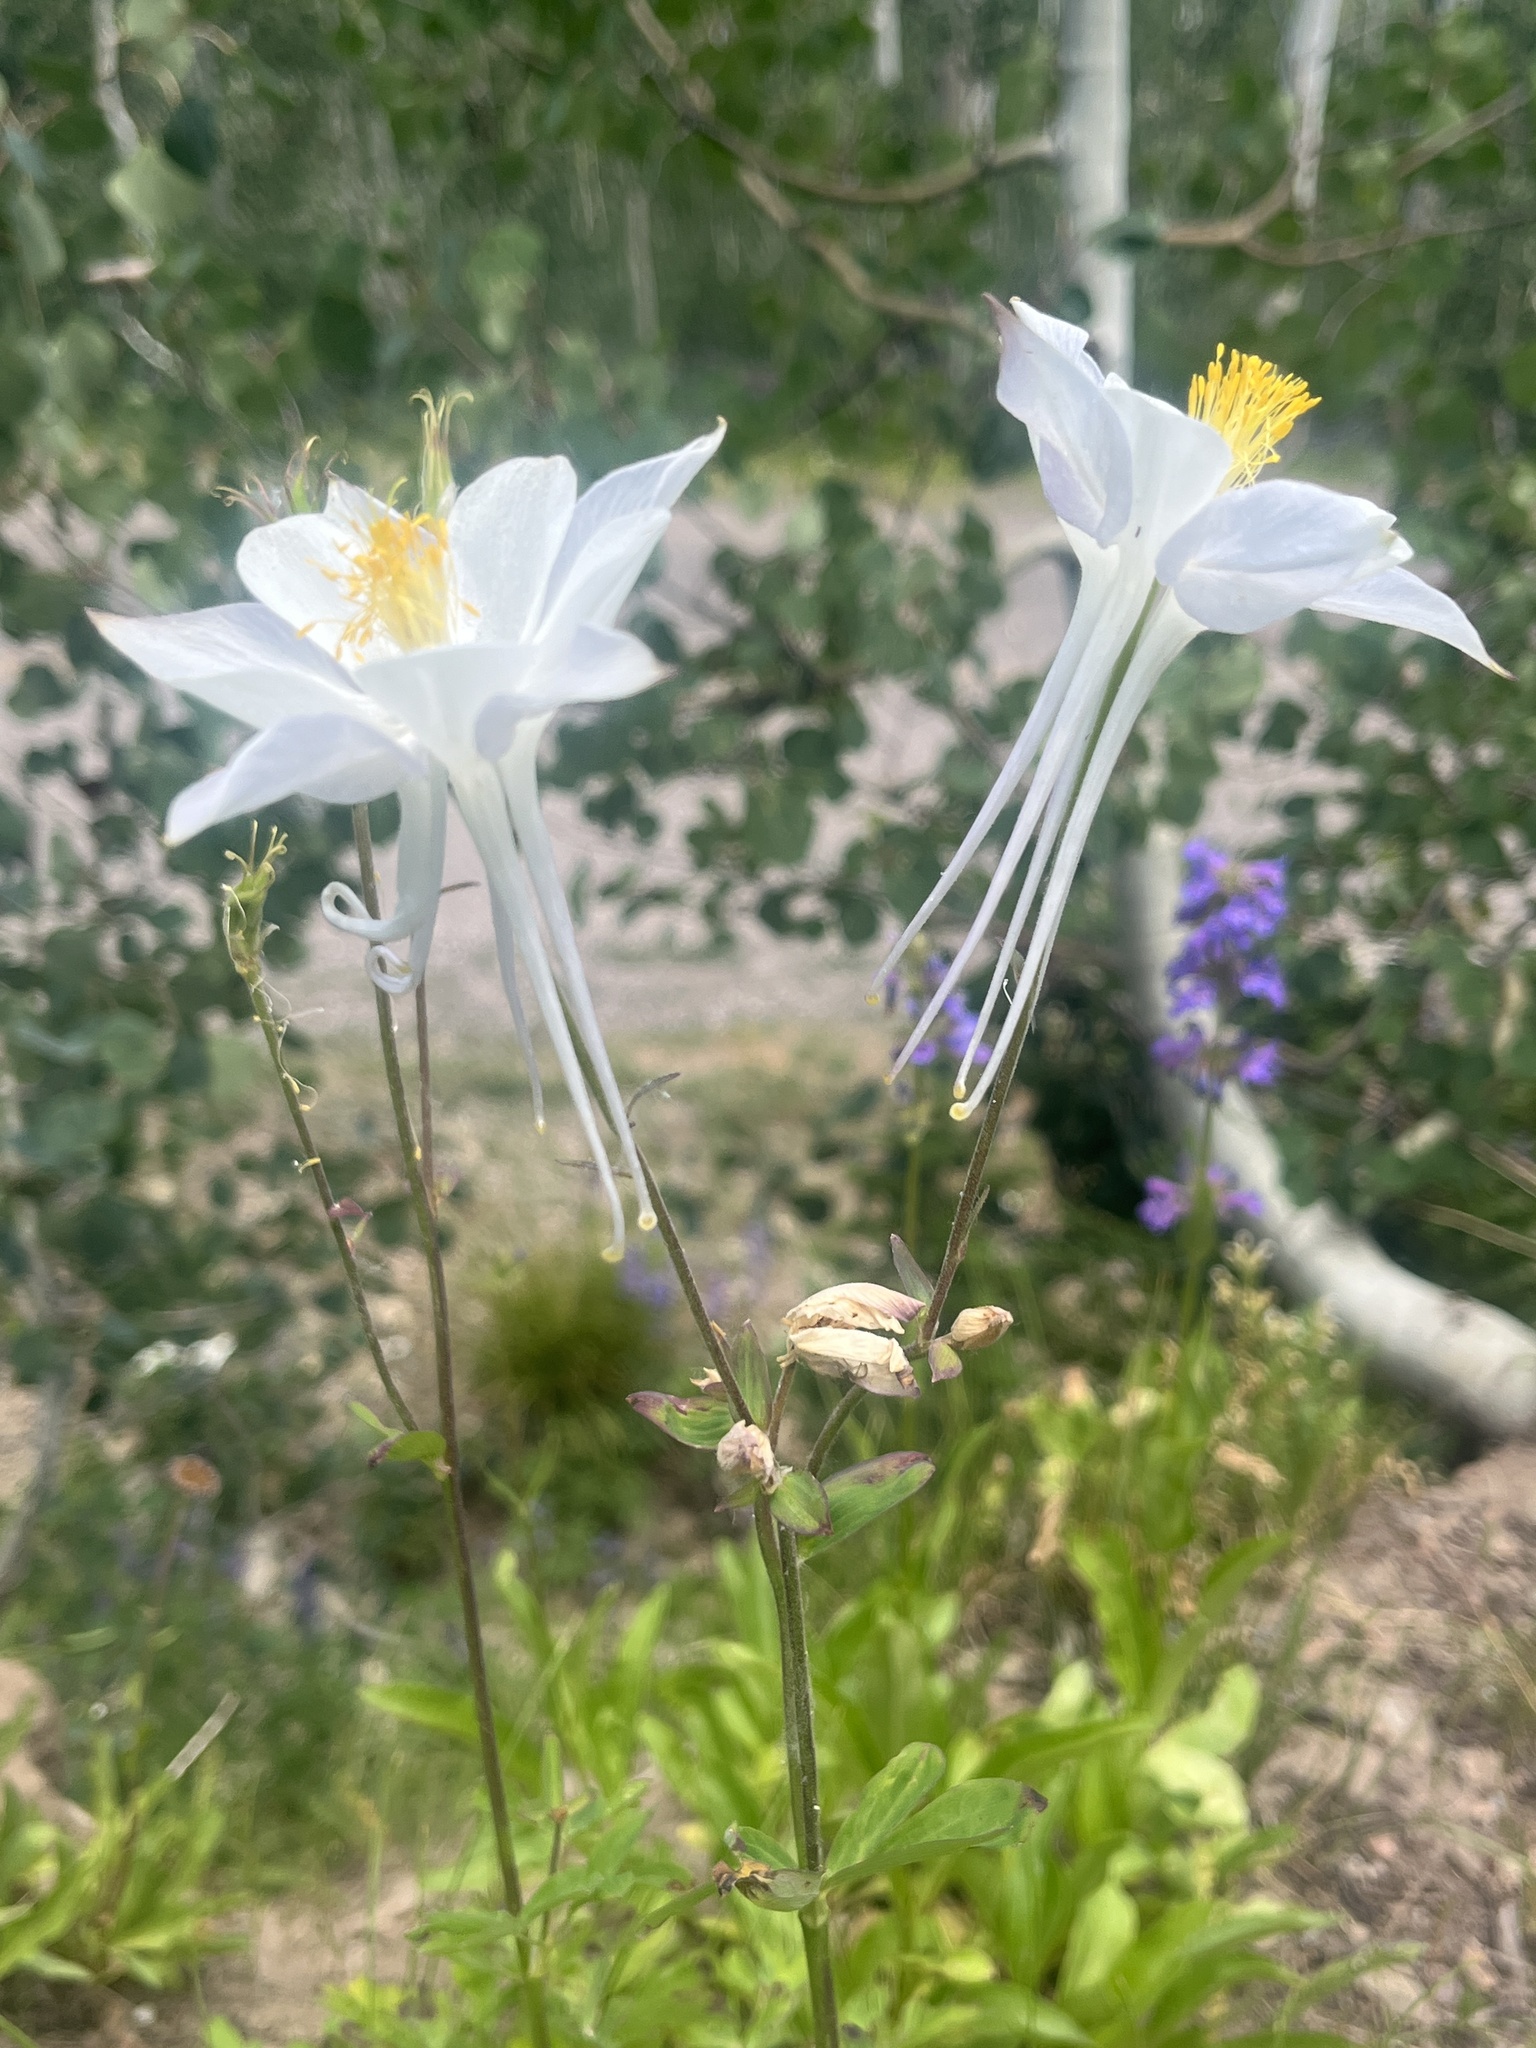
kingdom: Plantae
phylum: Tracheophyta
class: Magnoliopsida
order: Ranunculales
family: Ranunculaceae
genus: Aquilegia
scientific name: Aquilegia coerulea
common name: Rocky mountain columbine
